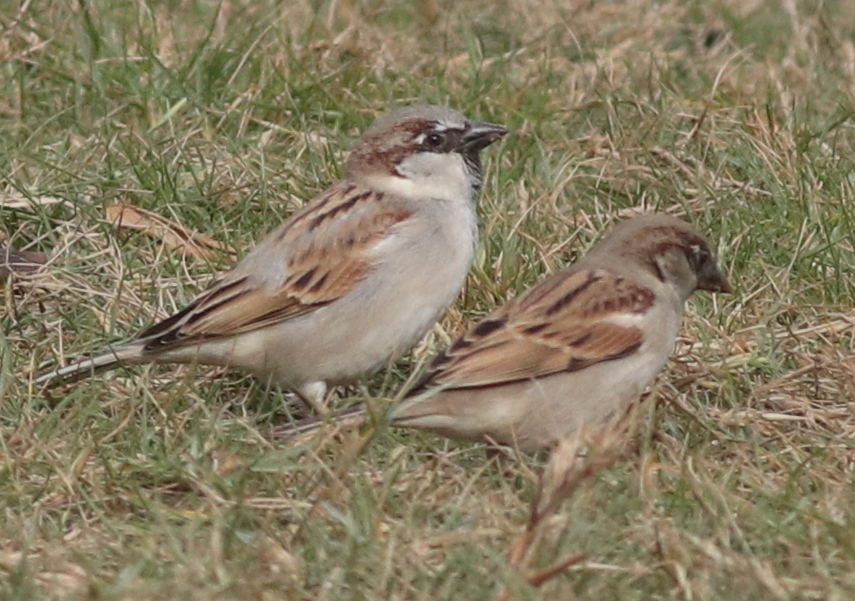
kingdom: Animalia
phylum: Chordata
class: Aves
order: Passeriformes
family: Passeridae
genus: Passer
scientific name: Passer domesticus
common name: House sparrow
